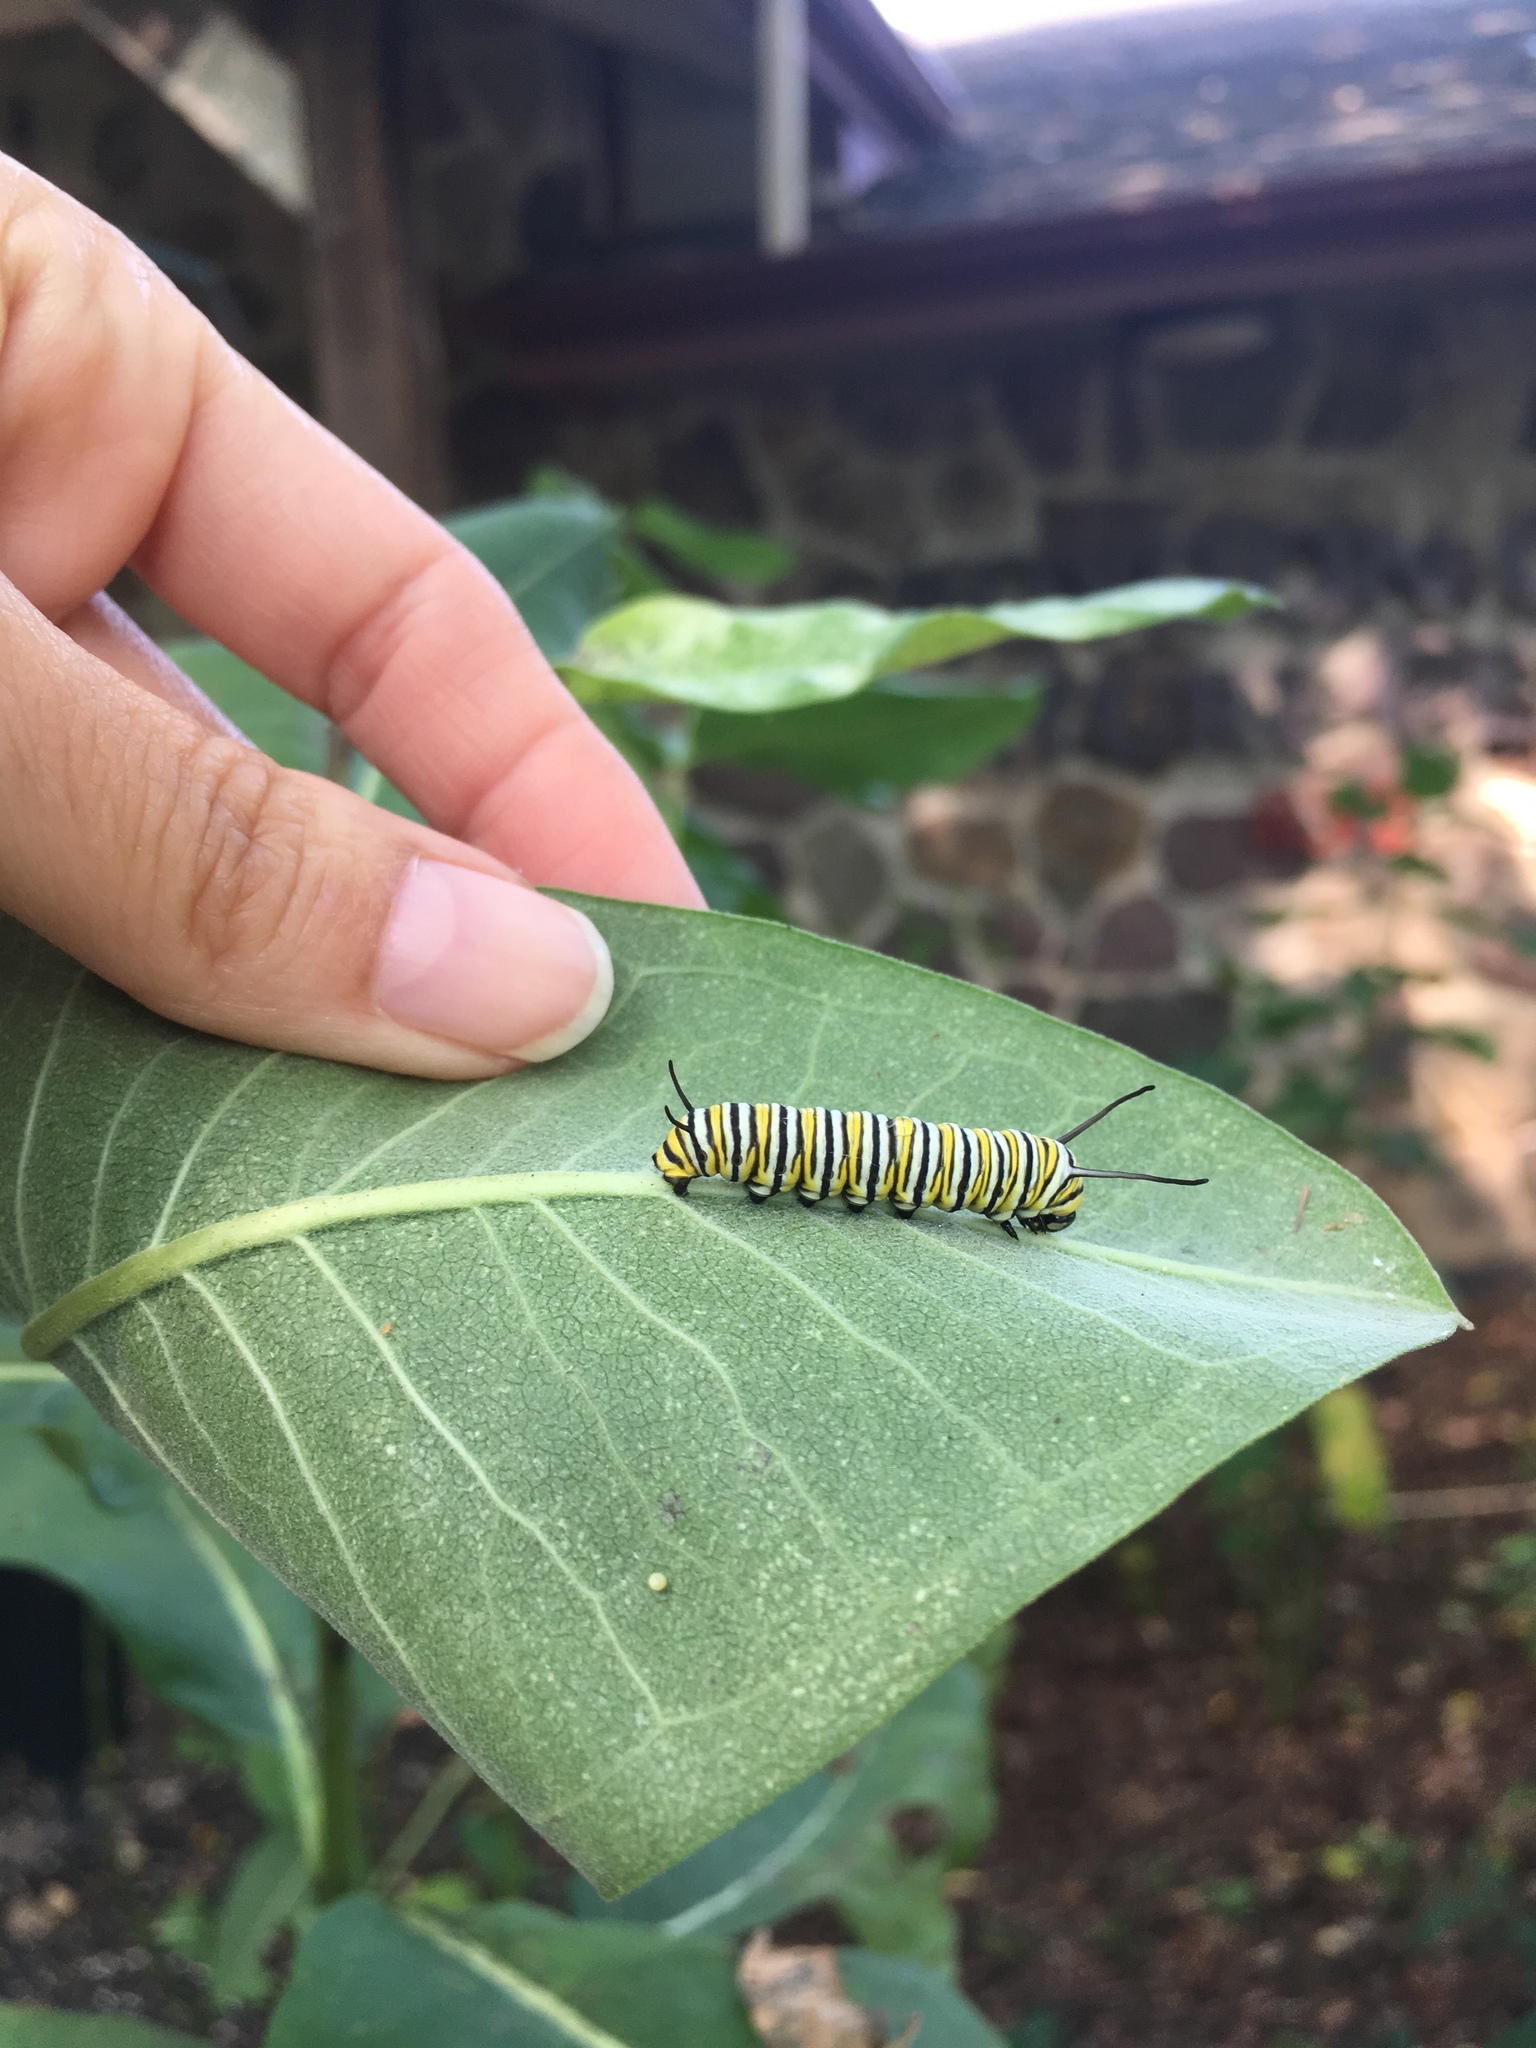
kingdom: Animalia
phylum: Arthropoda
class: Insecta
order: Lepidoptera
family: Nymphalidae
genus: Danaus
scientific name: Danaus plexippus
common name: Monarch
